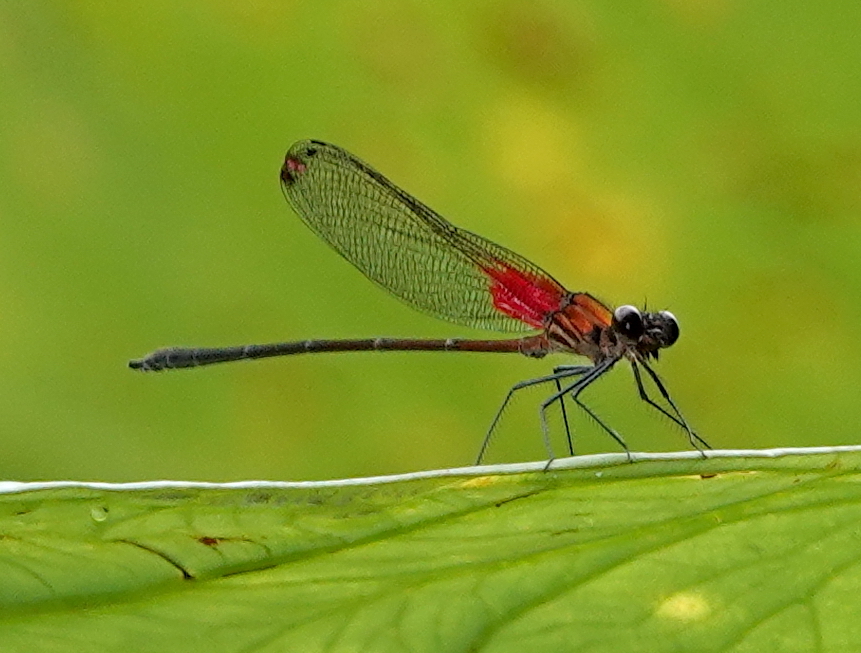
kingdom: Animalia
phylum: Arthropoda
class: Insecta
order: Odonata
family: Calopterygidae
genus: Hetaerina
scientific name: Hetaerina occisa
